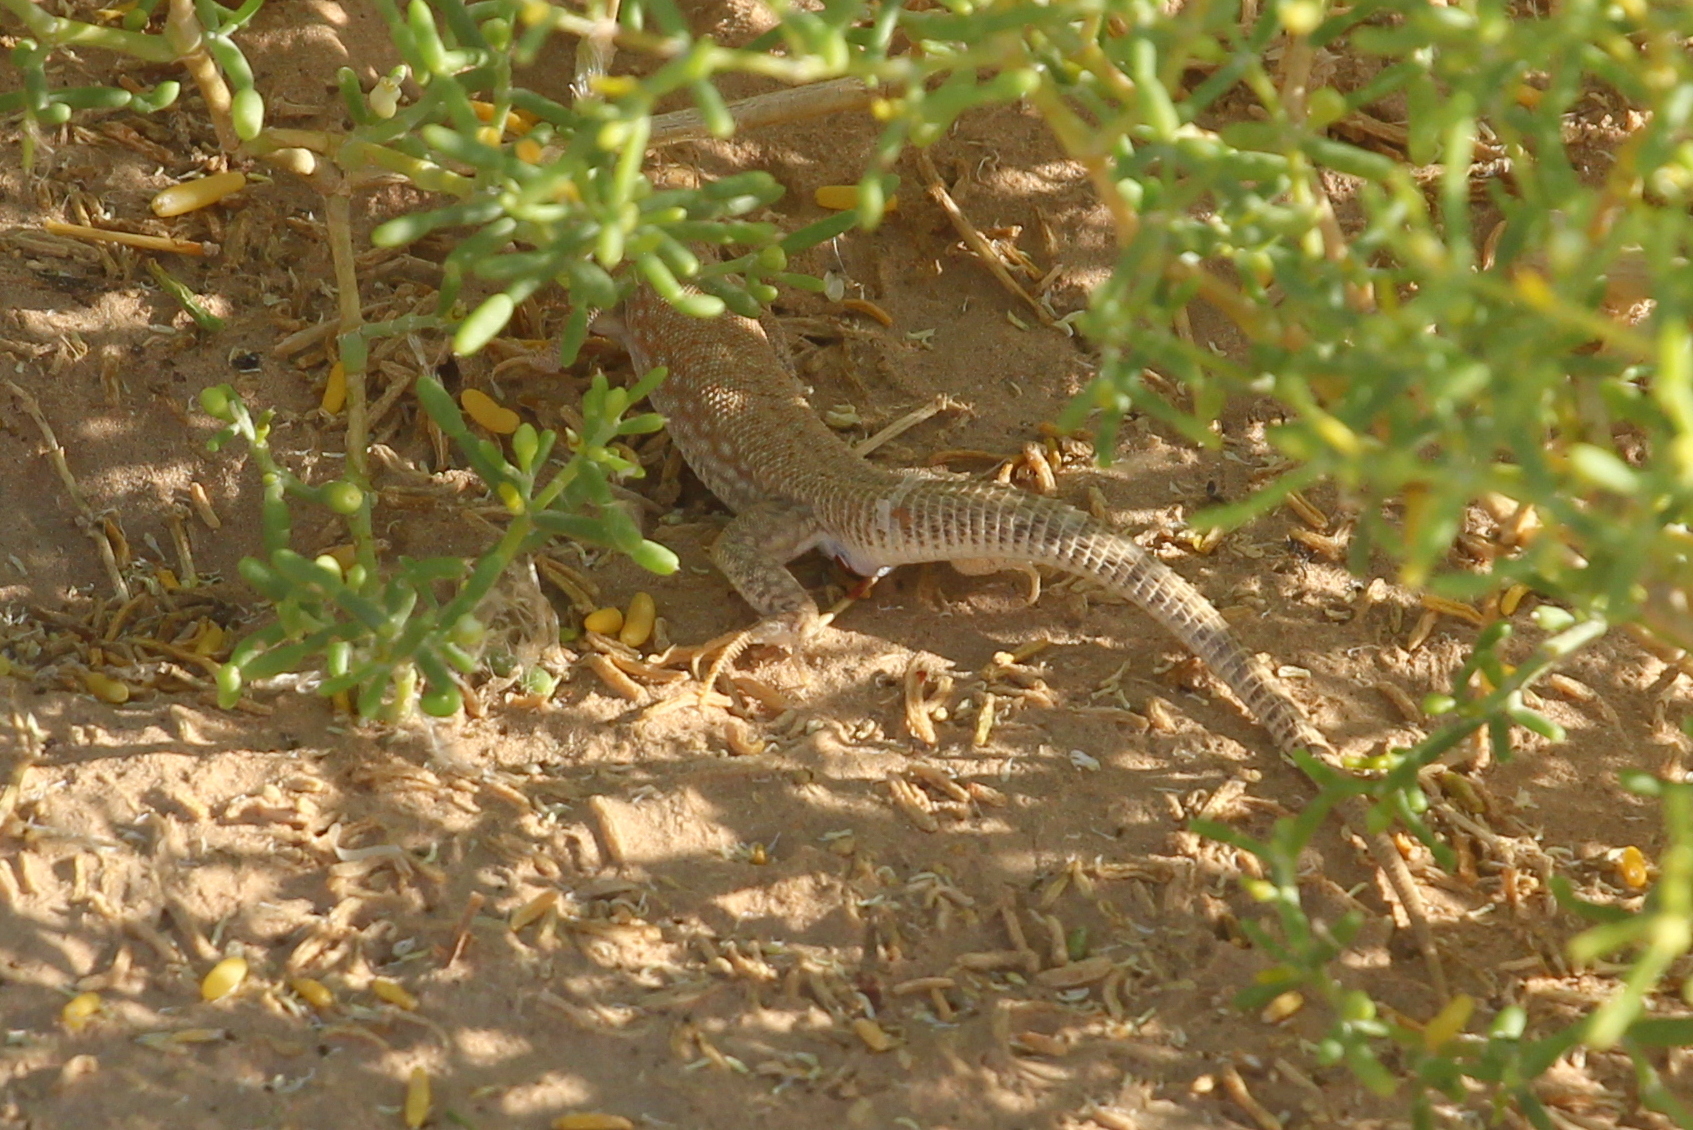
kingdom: Animalia
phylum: Chordata
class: Squamata
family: Lacertidae
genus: Acanthodactylus
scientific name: Acanthodactylus schmidti
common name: Schmidt's fringe-toed lizard
